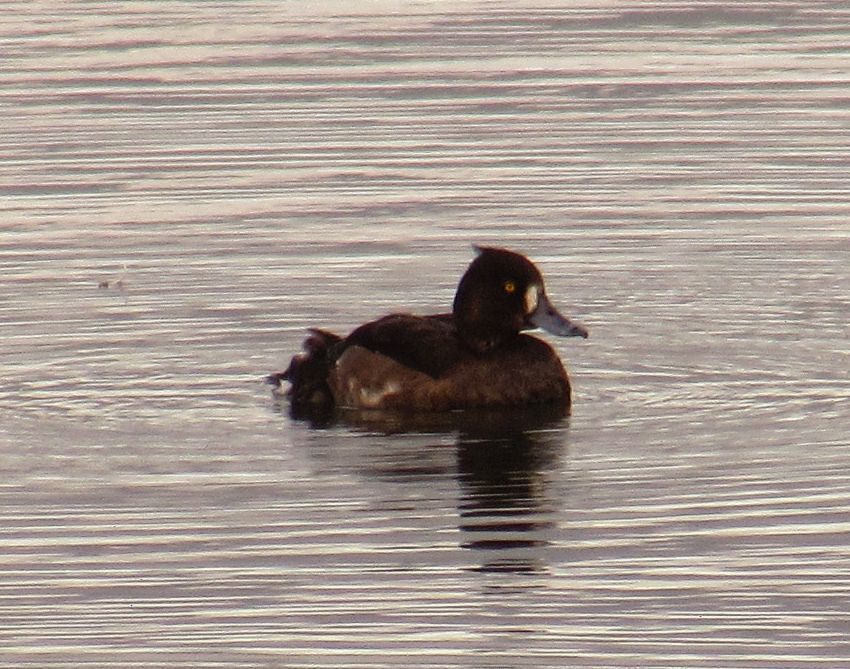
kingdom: Animalia
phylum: Chordata
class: Aves
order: Anseriformes
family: Anatidae
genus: Aythya
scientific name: Aythya fuligula
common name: Tufted duck
